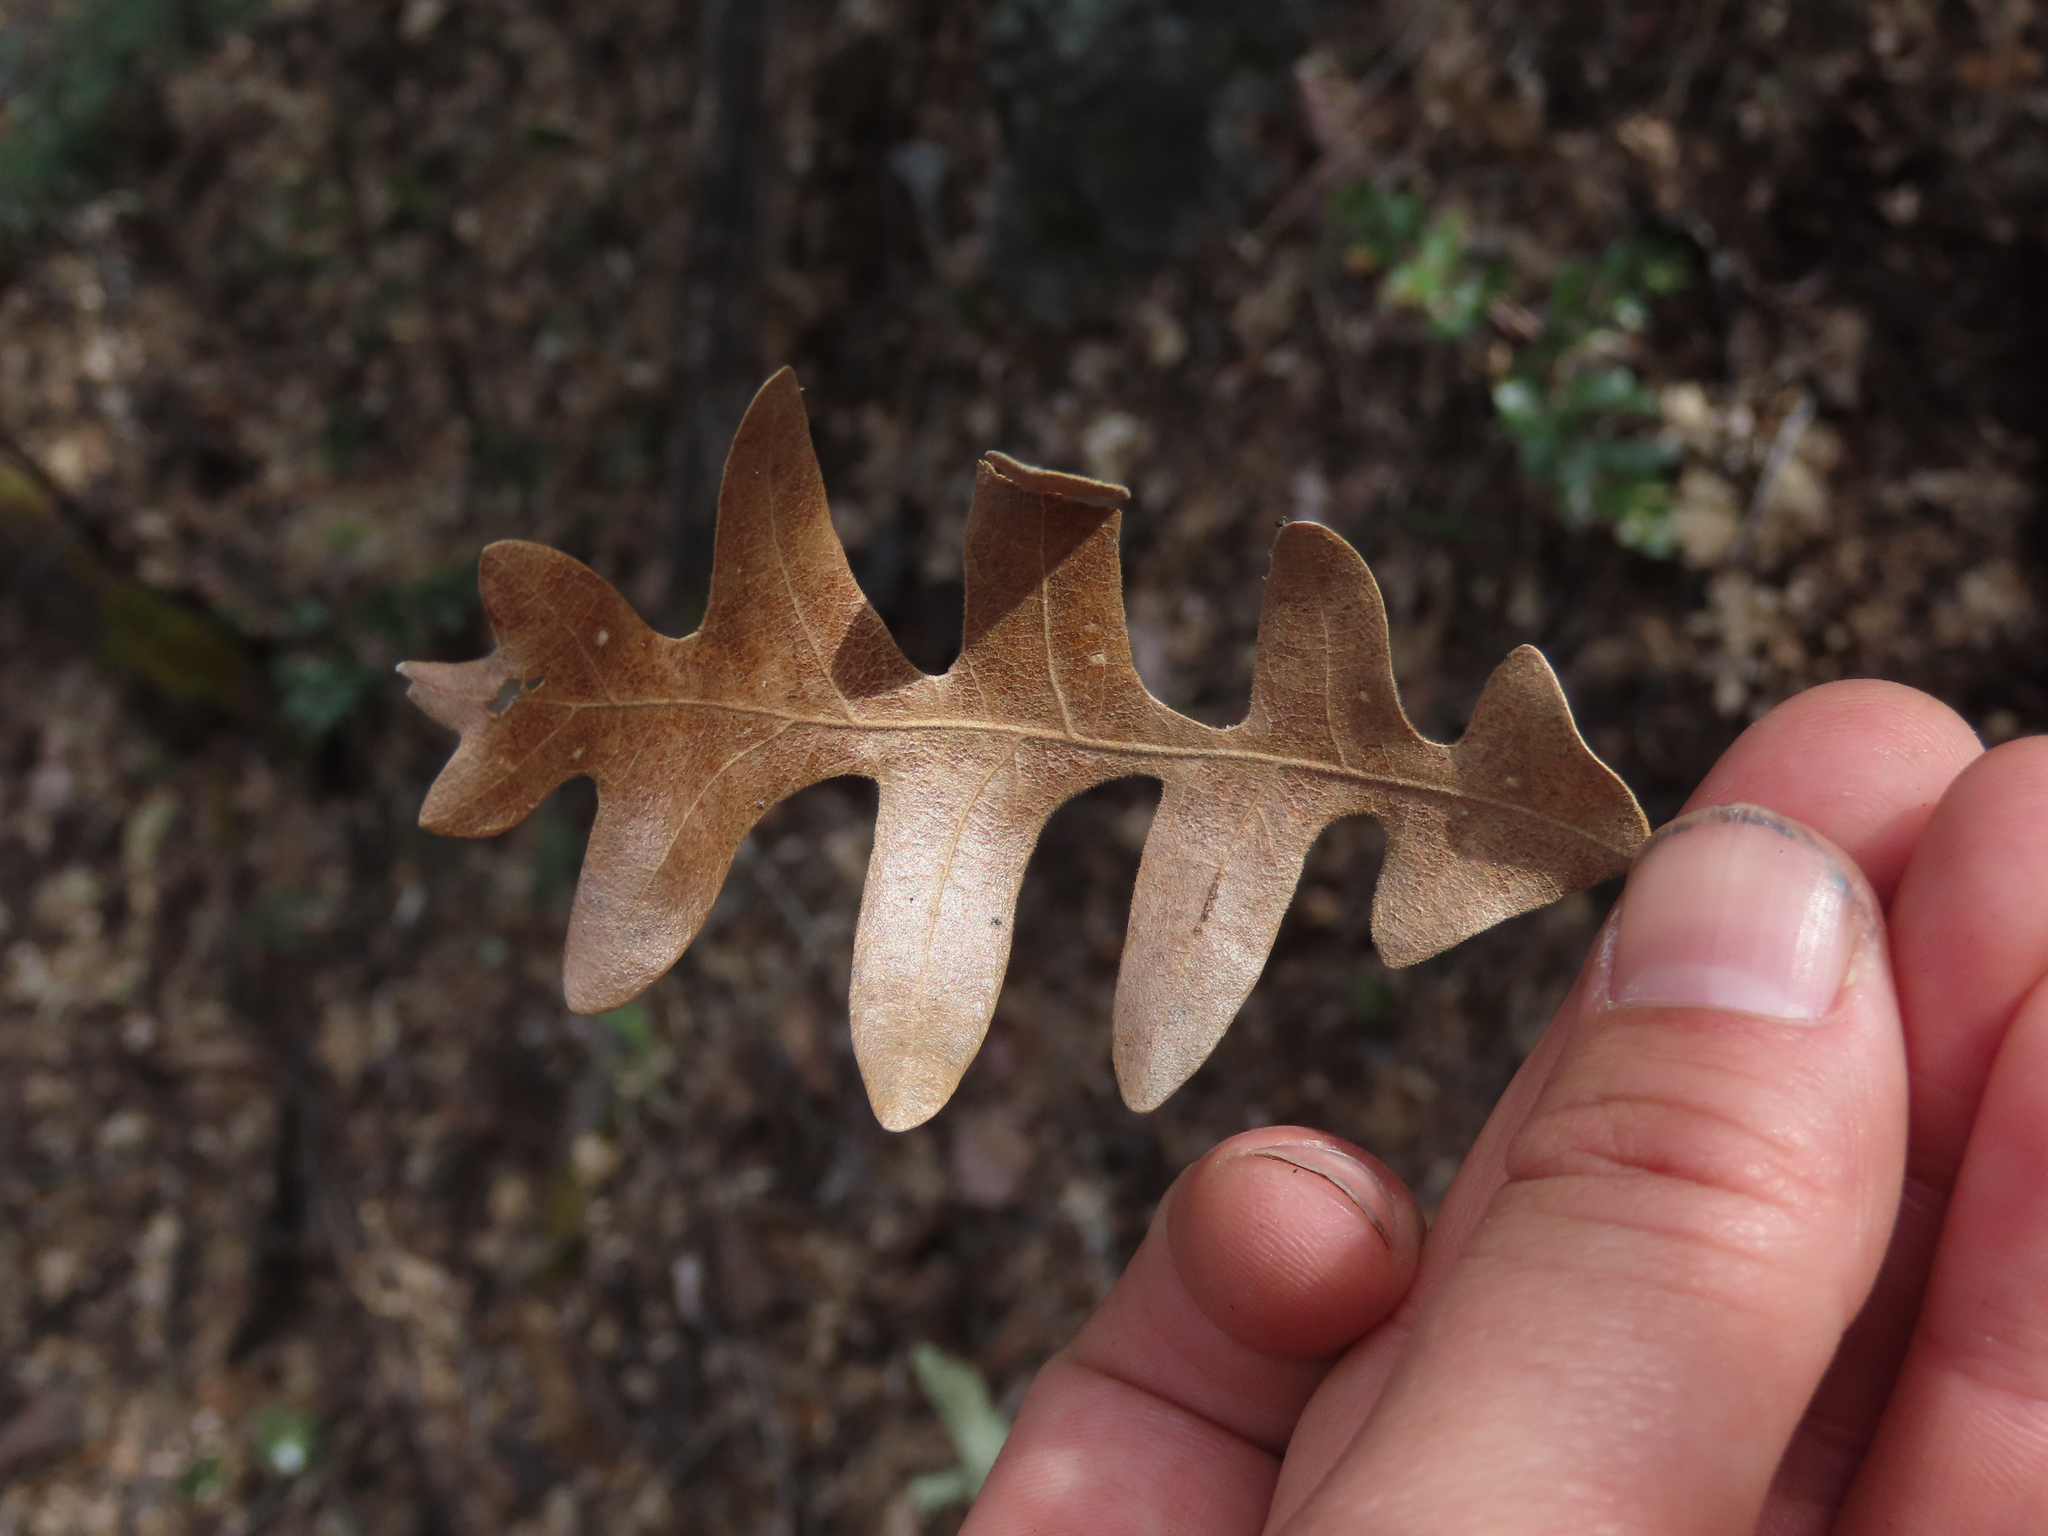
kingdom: Plantae
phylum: Tracheophyta
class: Magnoliopsida
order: Fagales
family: Fagaceae
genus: Quercus
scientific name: Quercus gambelii
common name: Gambel oak
